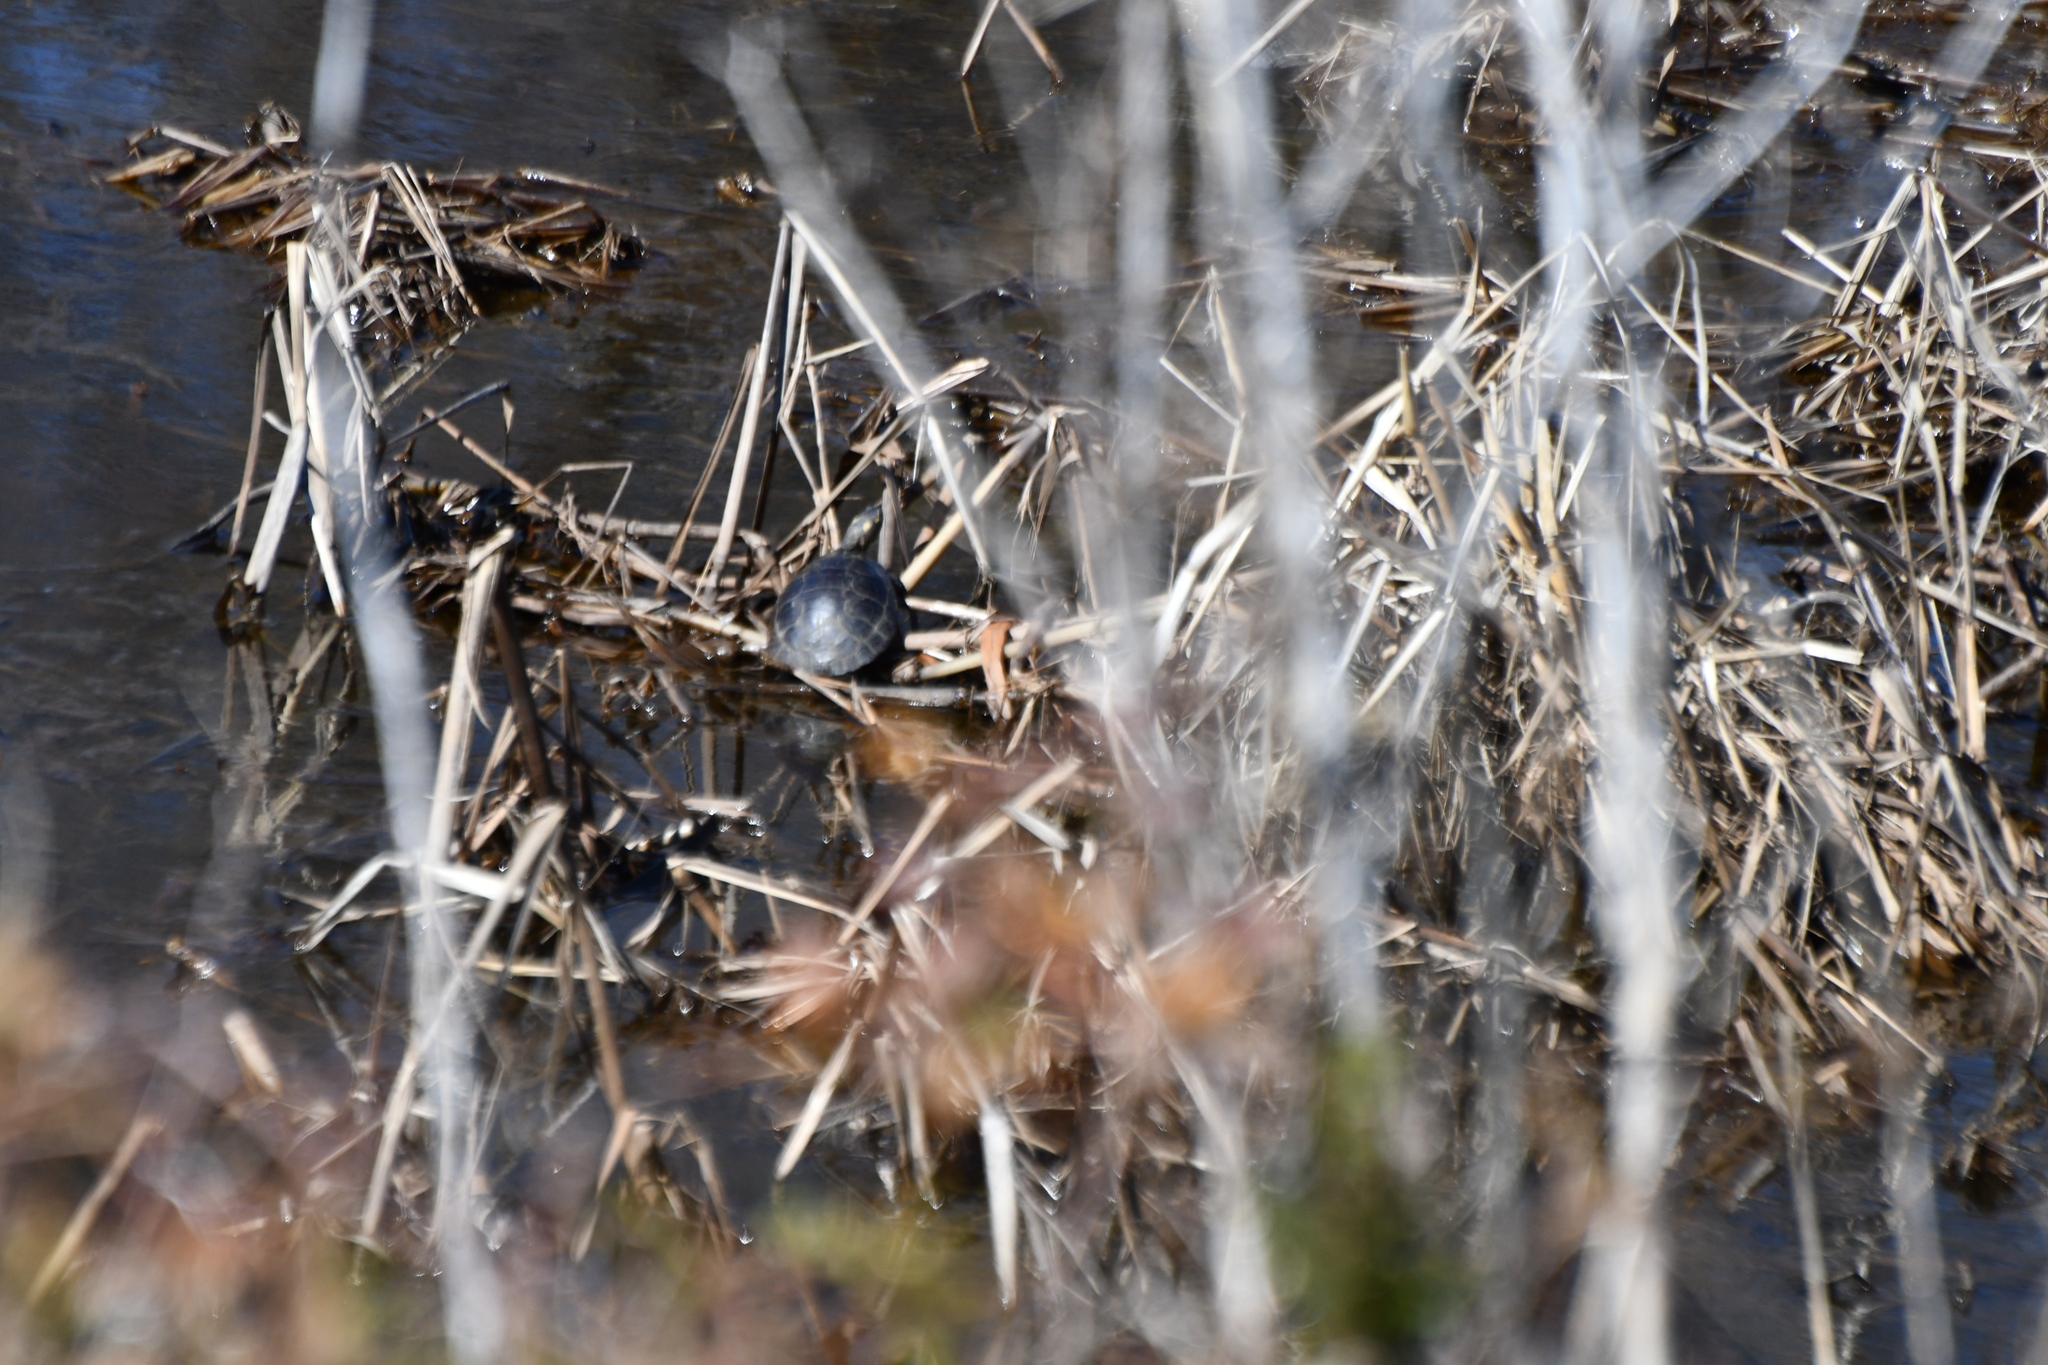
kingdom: Animalia
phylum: Chordata
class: Testudines
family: Emydidae
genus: Chrysemys
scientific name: Chrysemys picta
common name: Painted turtle
